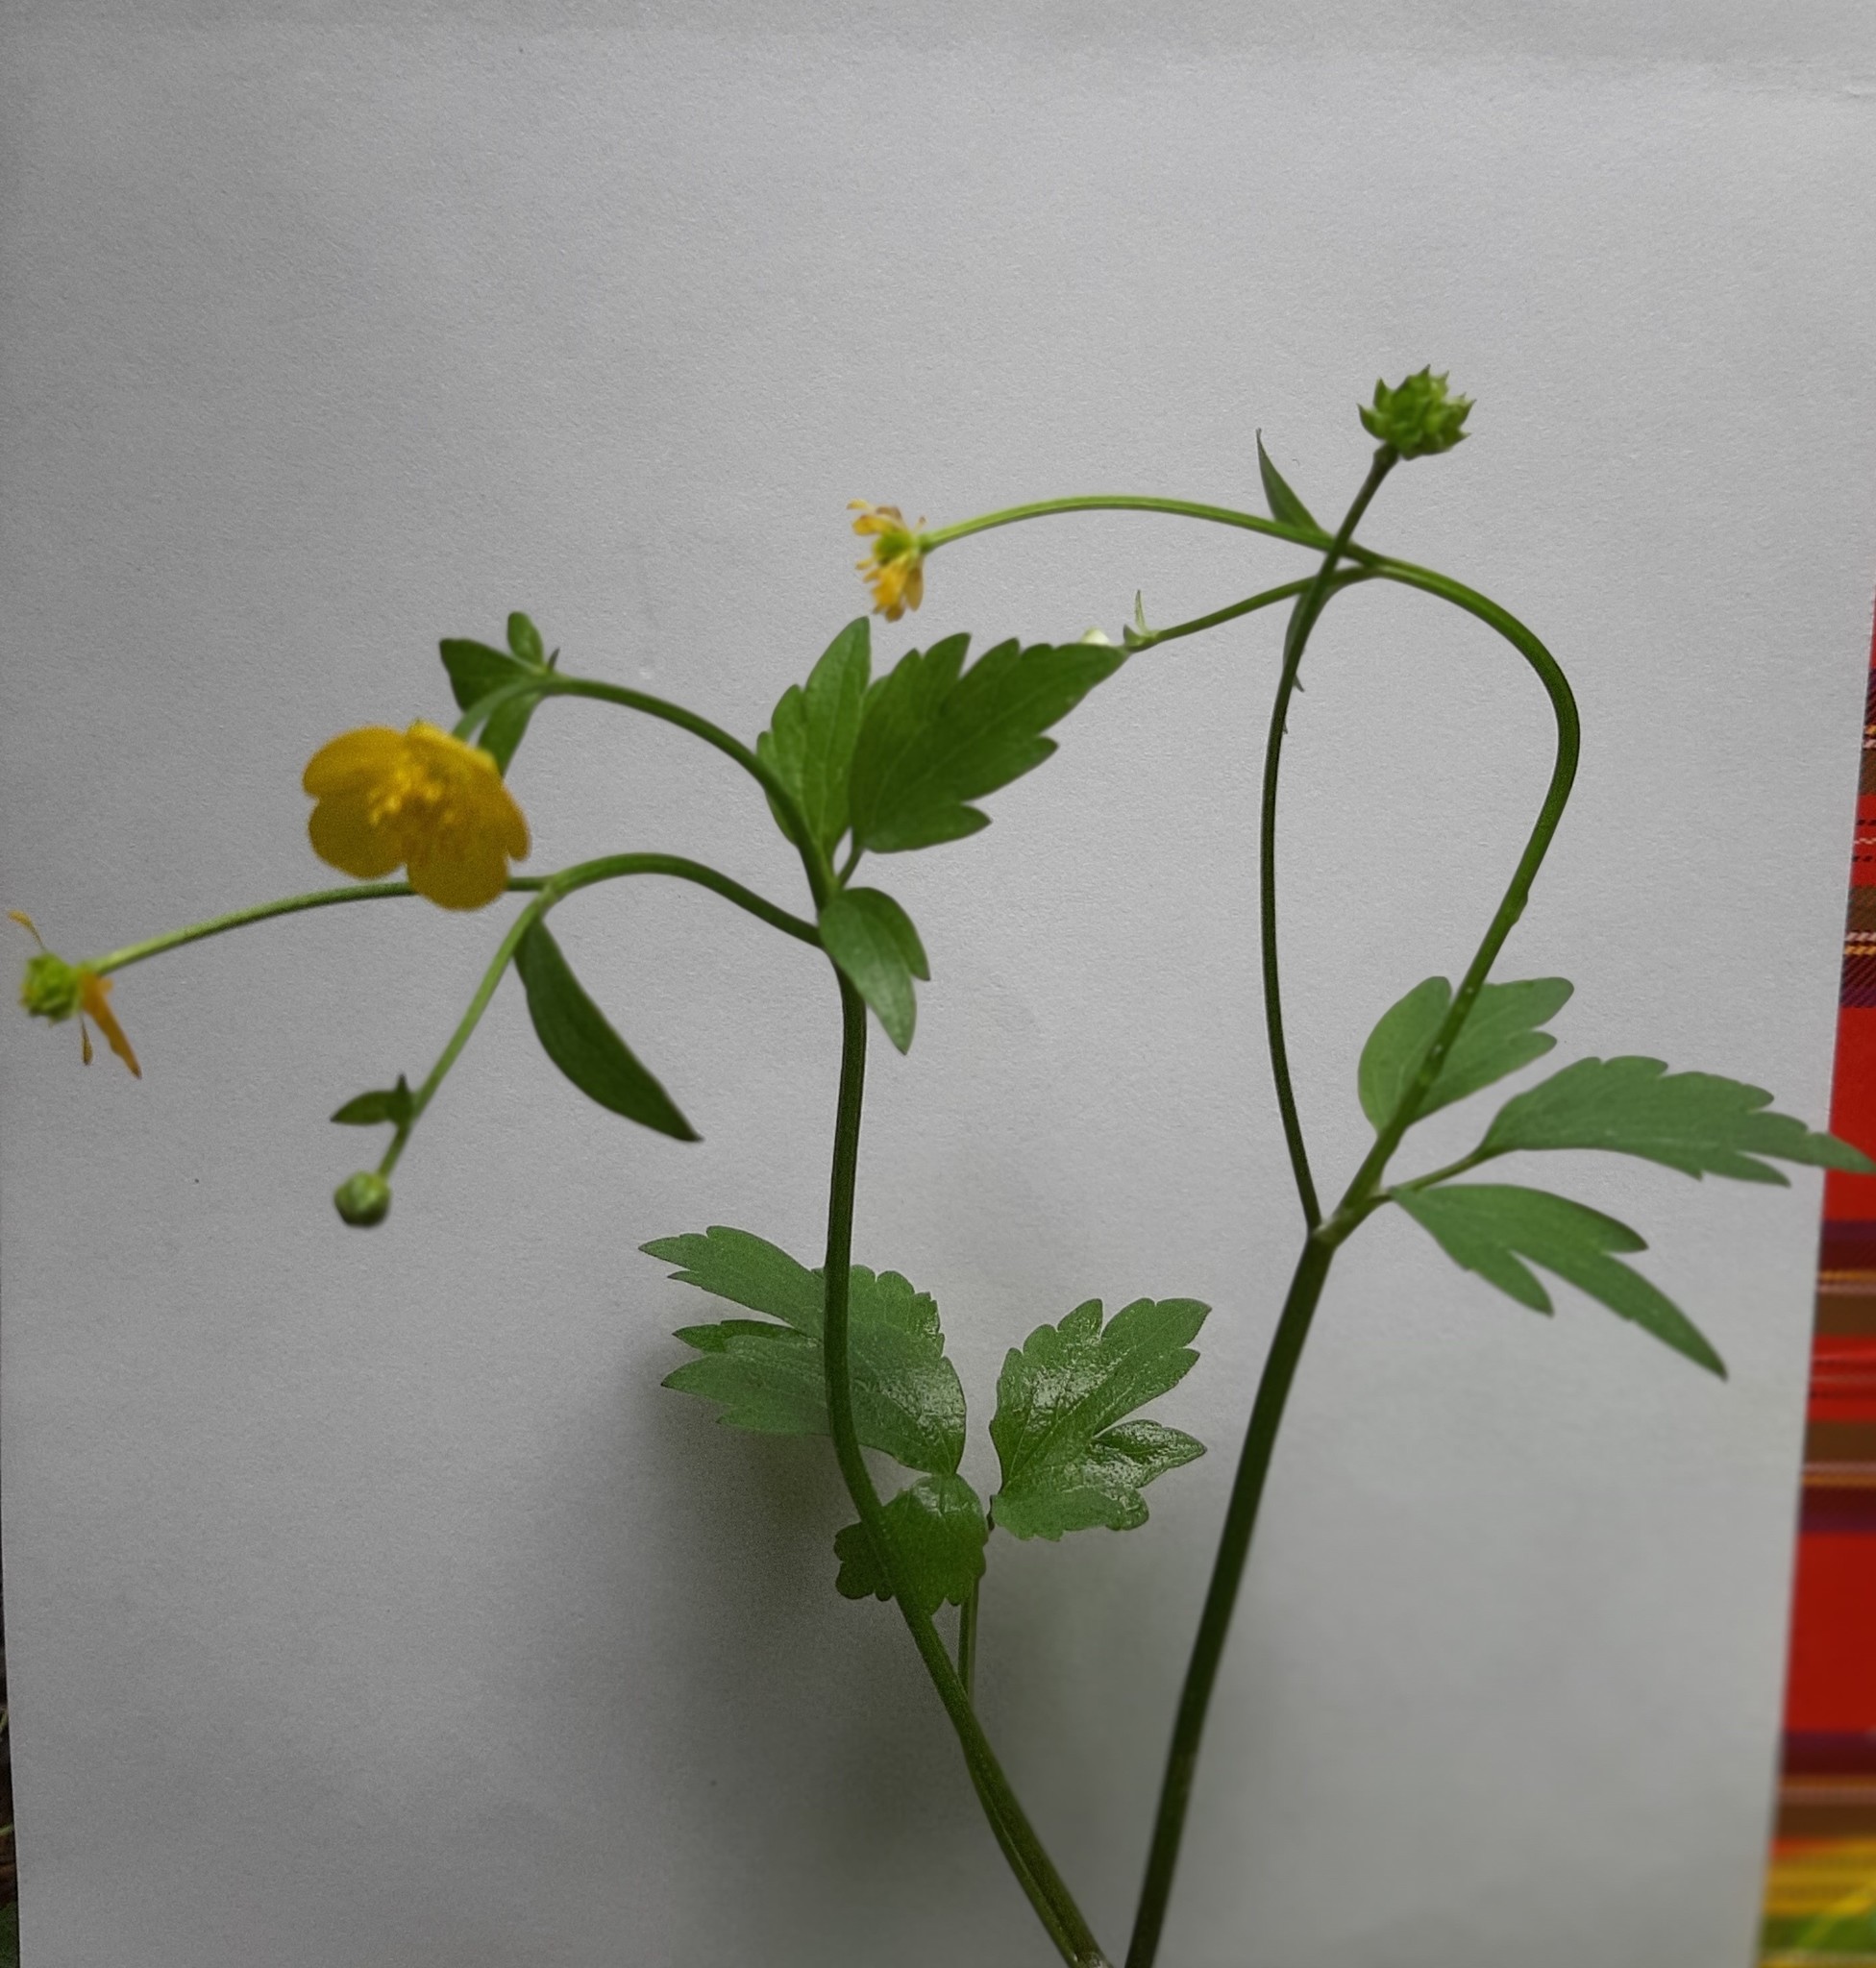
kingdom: Plantae
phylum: Tracheophyta
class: Magnoliopsida
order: Ranunculales
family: Ranunculaceae
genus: Ranunculus
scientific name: Ranunculus repens
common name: Creeping buttercup
